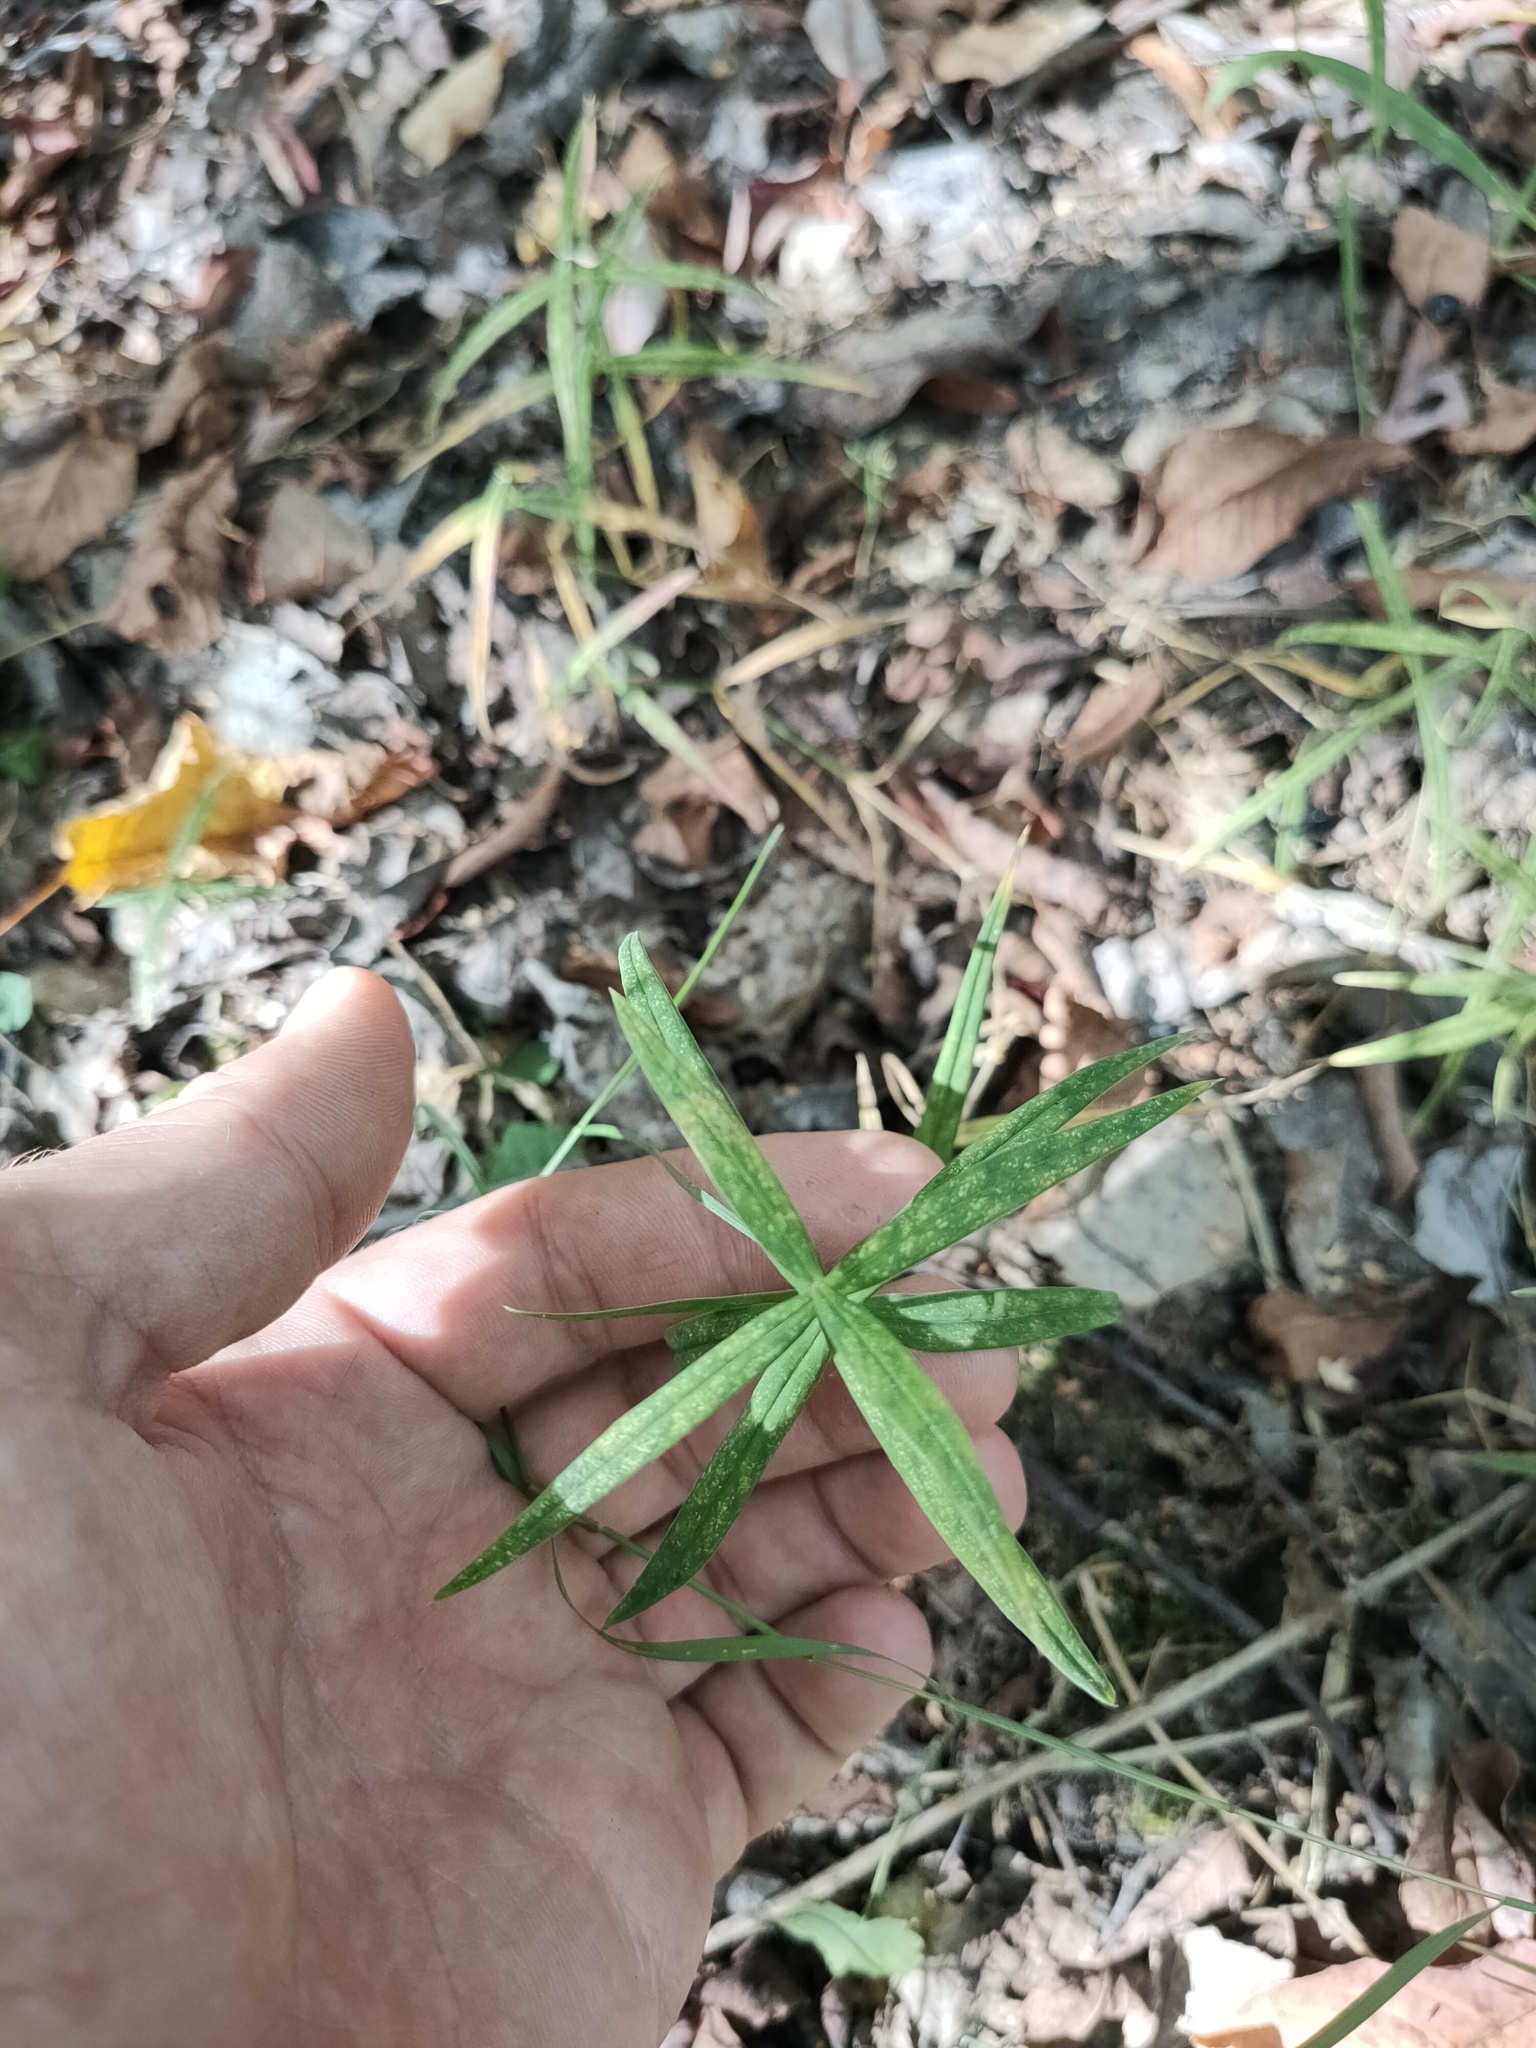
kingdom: Plantae
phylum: Tracheophyta
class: Magnoliopsida
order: Caryophyllales
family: Caryophyllaceae
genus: Rabelera
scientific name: Rabelera holostea
